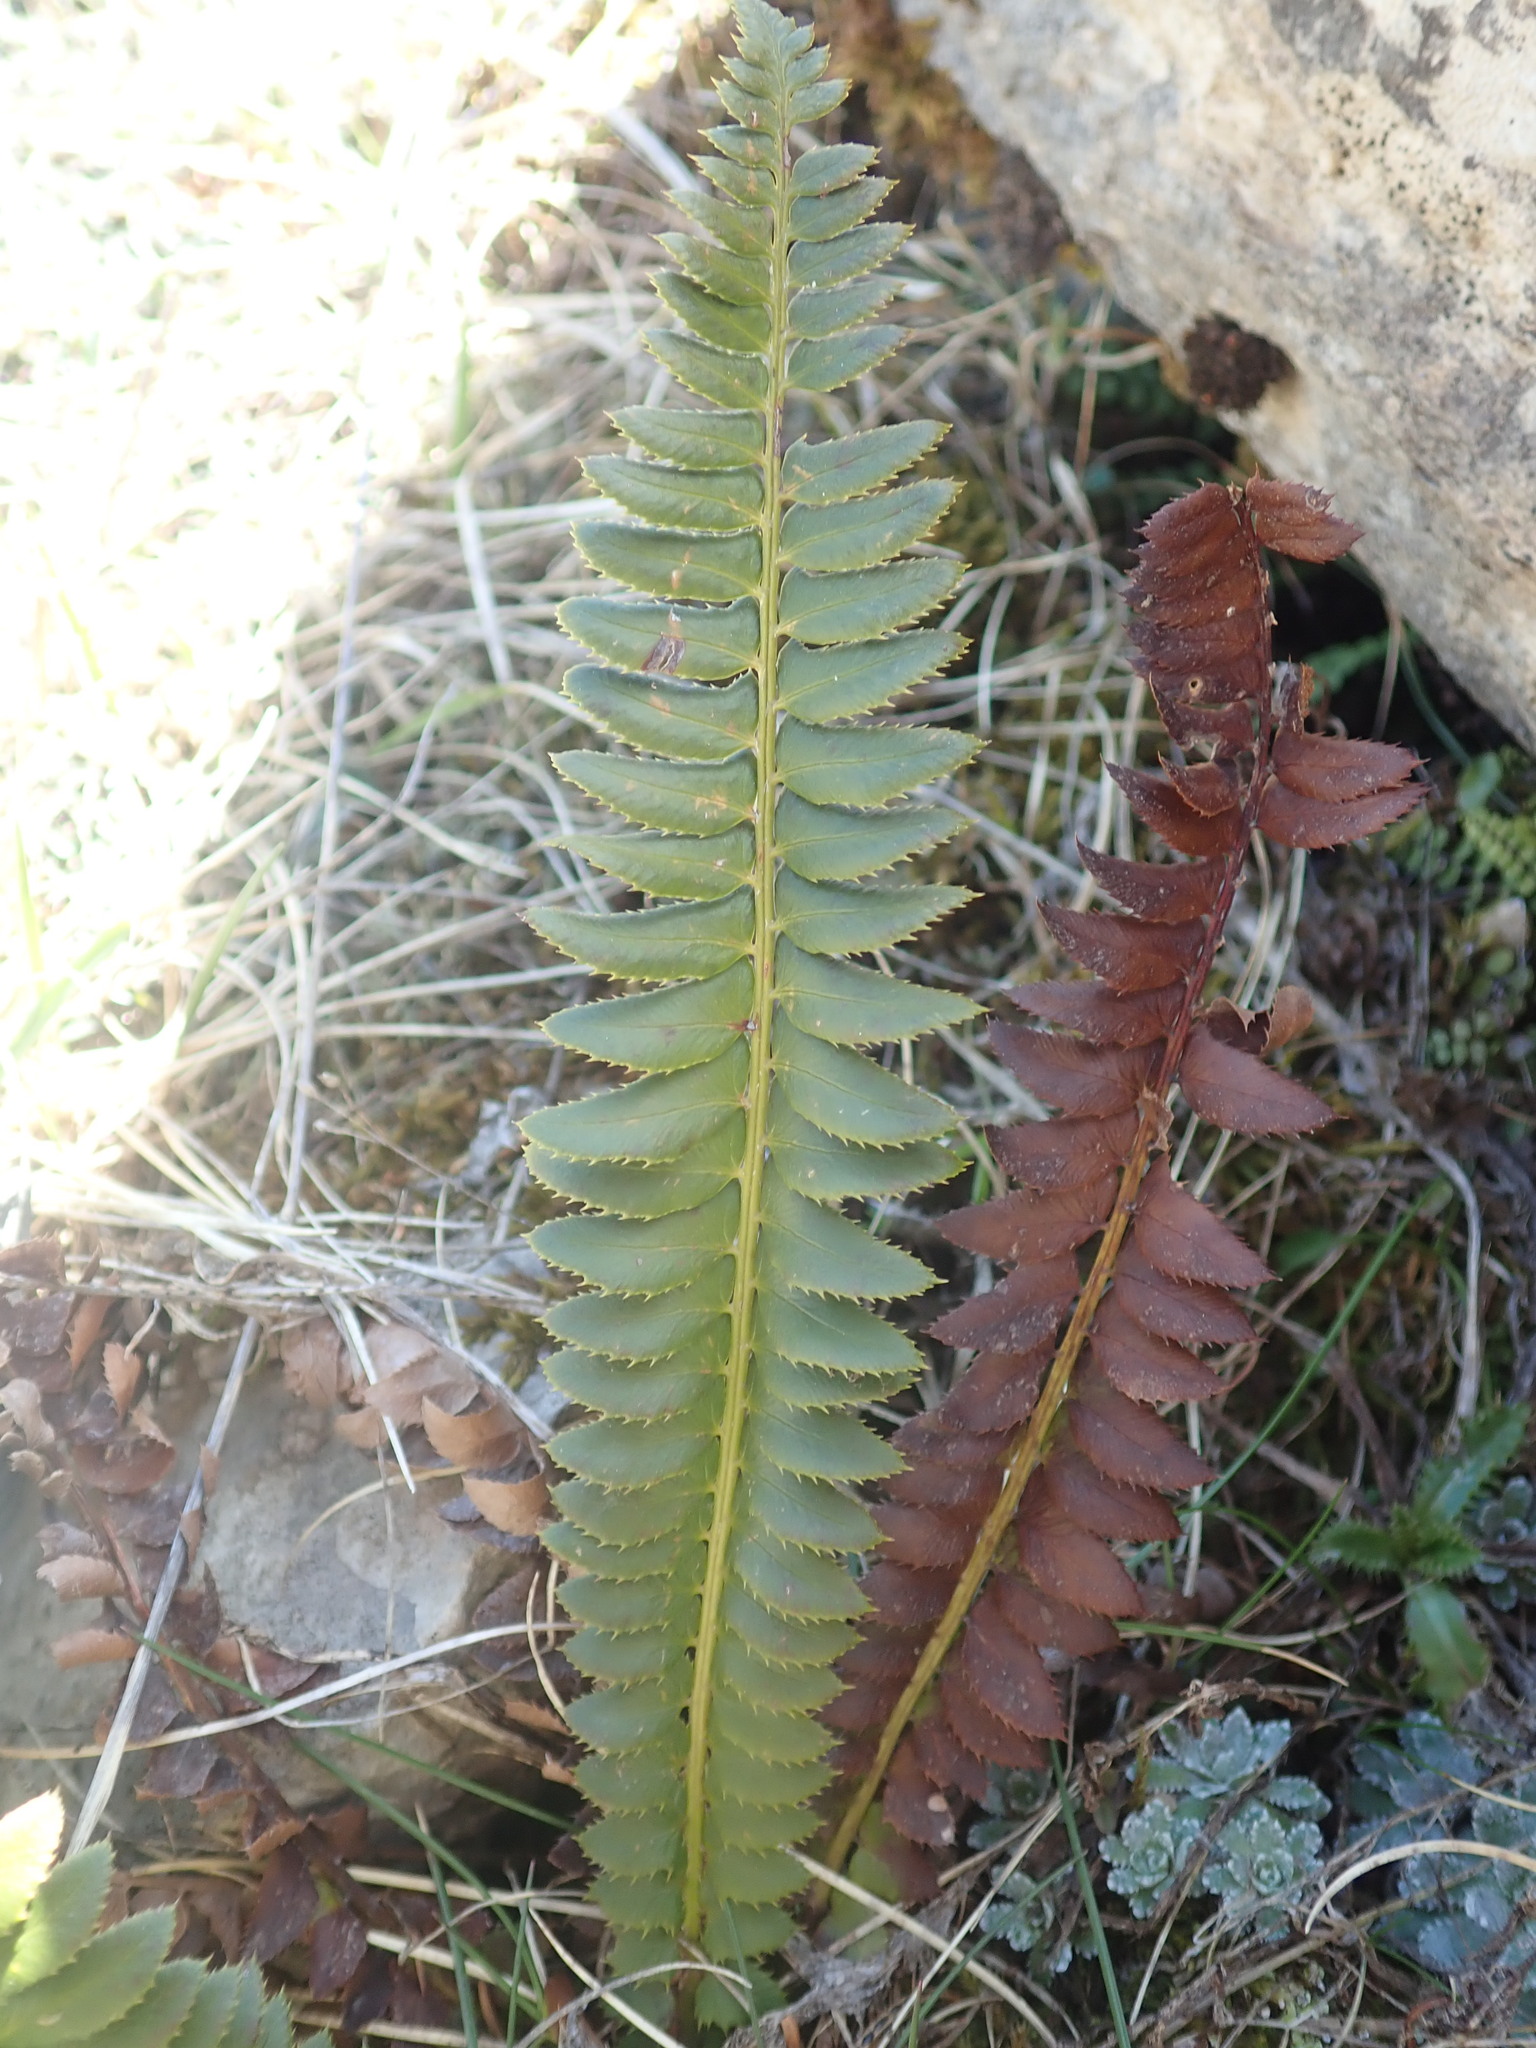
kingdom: Plantae
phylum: Tracheophyta
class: Polypodiopsida
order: Polypodiales
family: Dryopteridaceae
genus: Polystichum
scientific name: Polystichum lonchitis
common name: Holly fern
